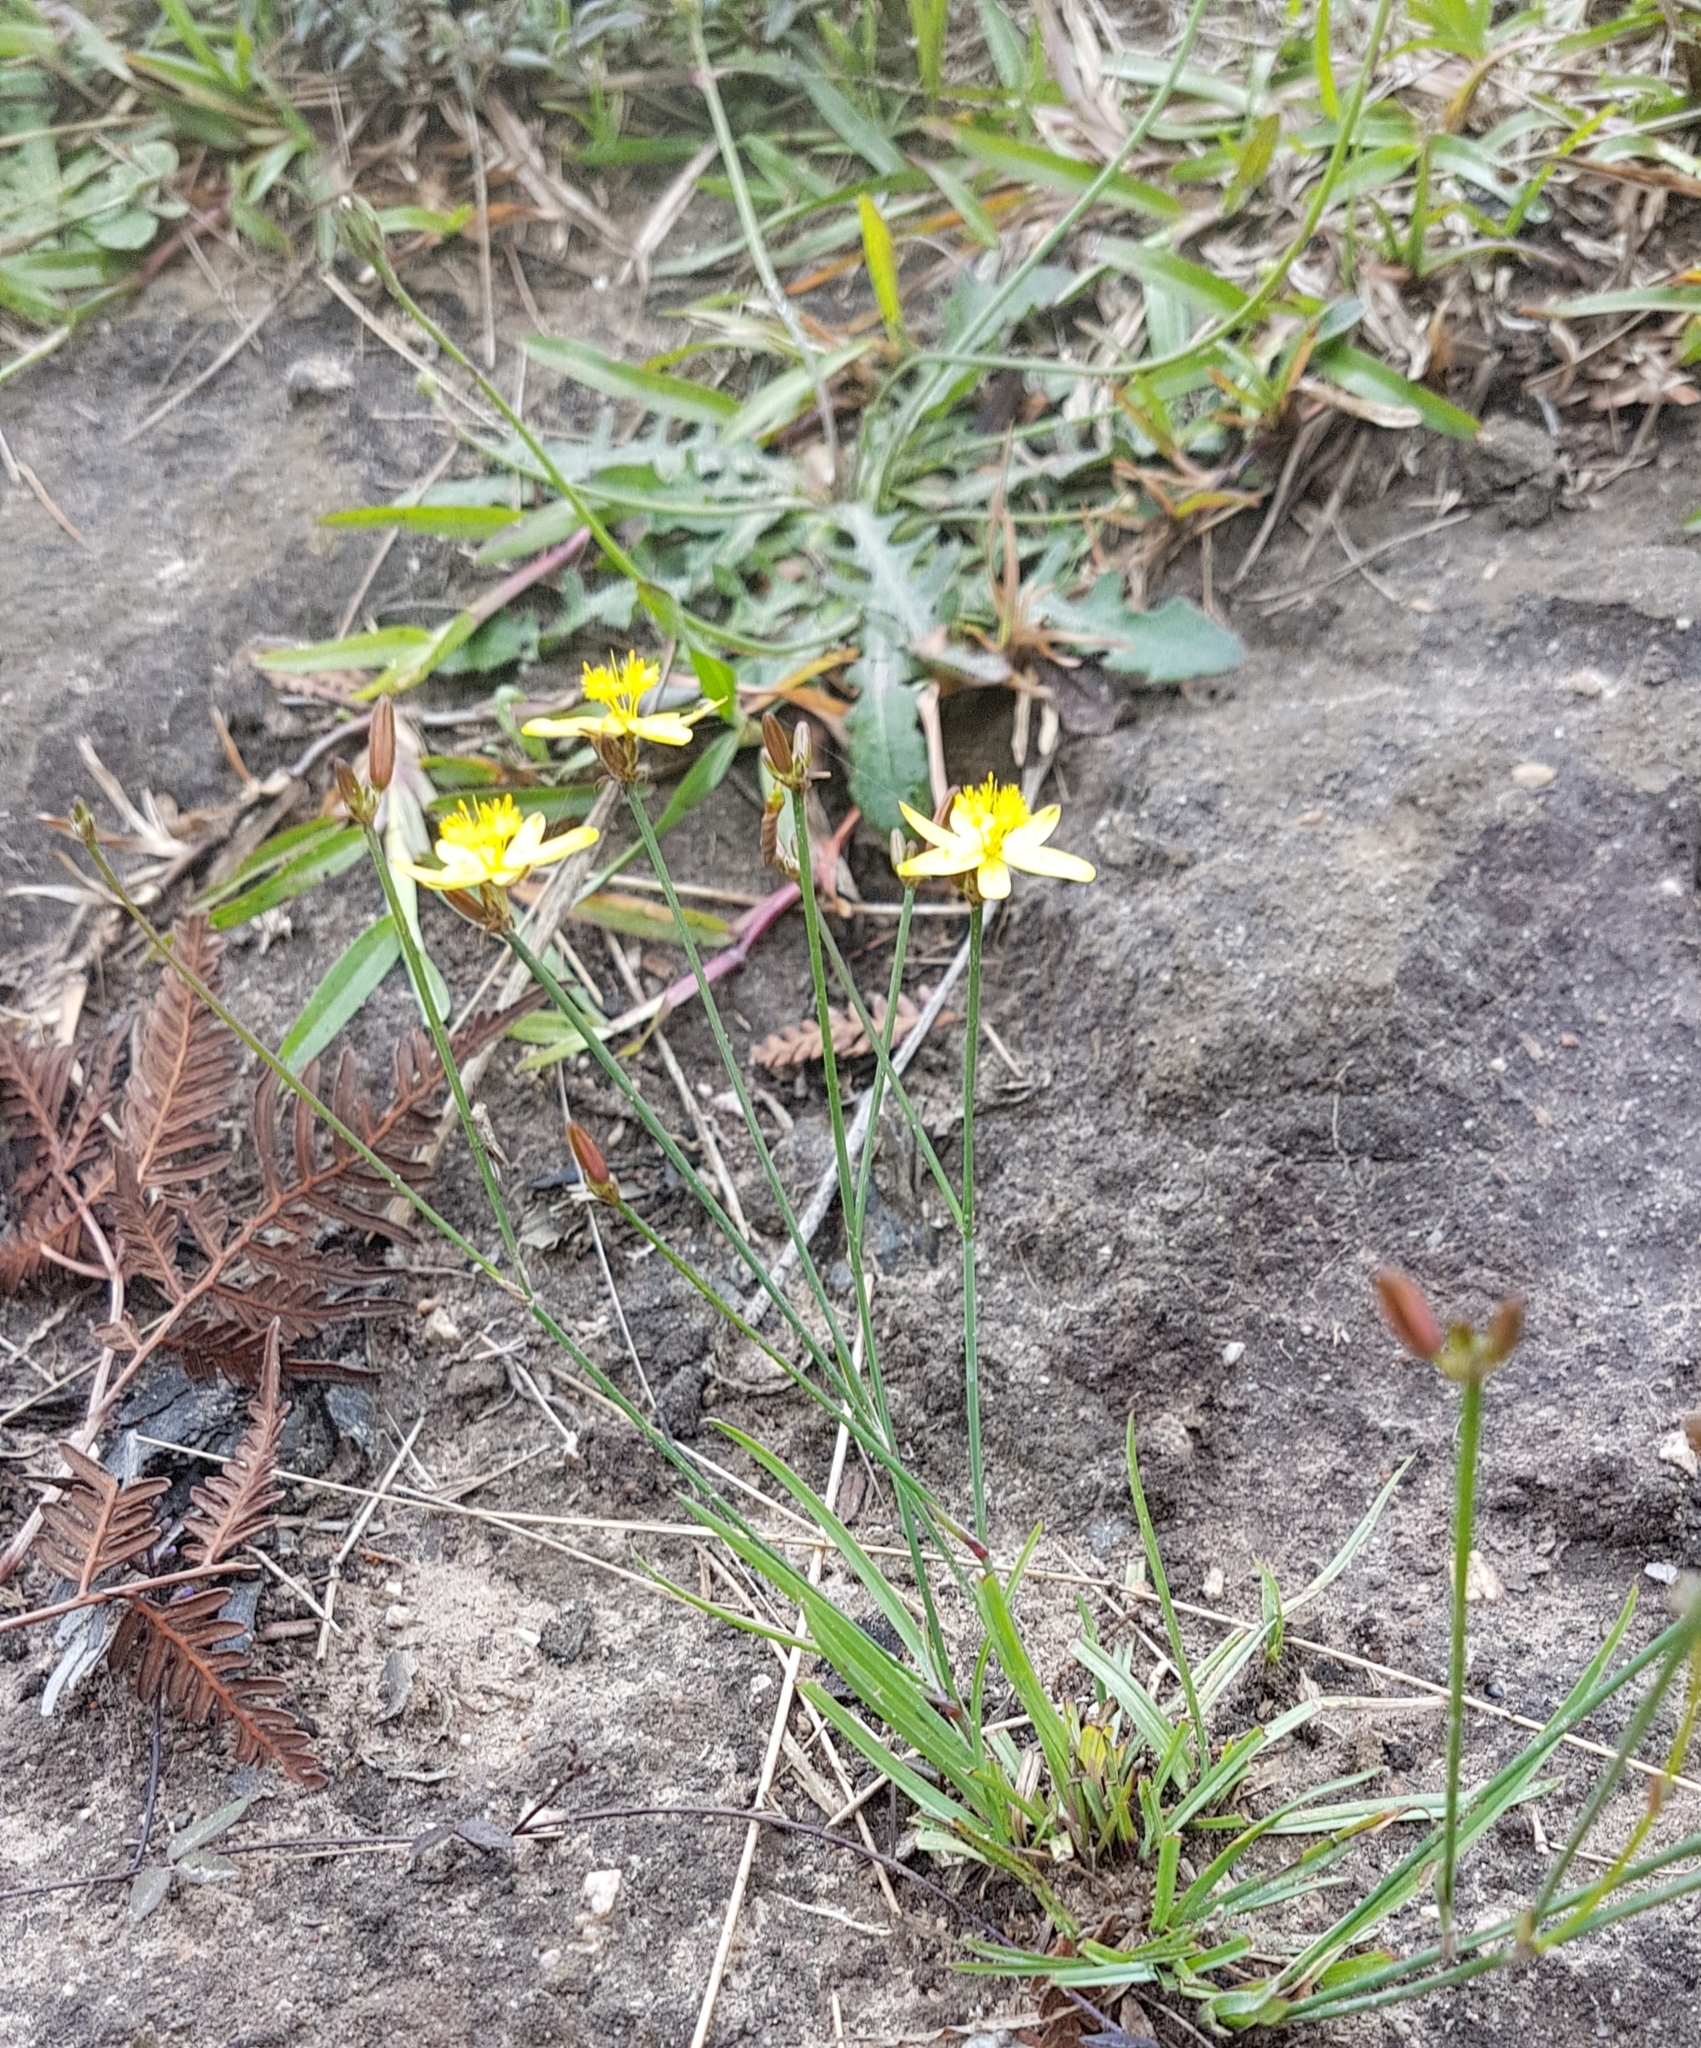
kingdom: Plantae
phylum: Tracheophyta
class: Liliopsida
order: Asparagales
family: Asphodelaceae
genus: Tricoryne
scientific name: Tricoryne elatior
